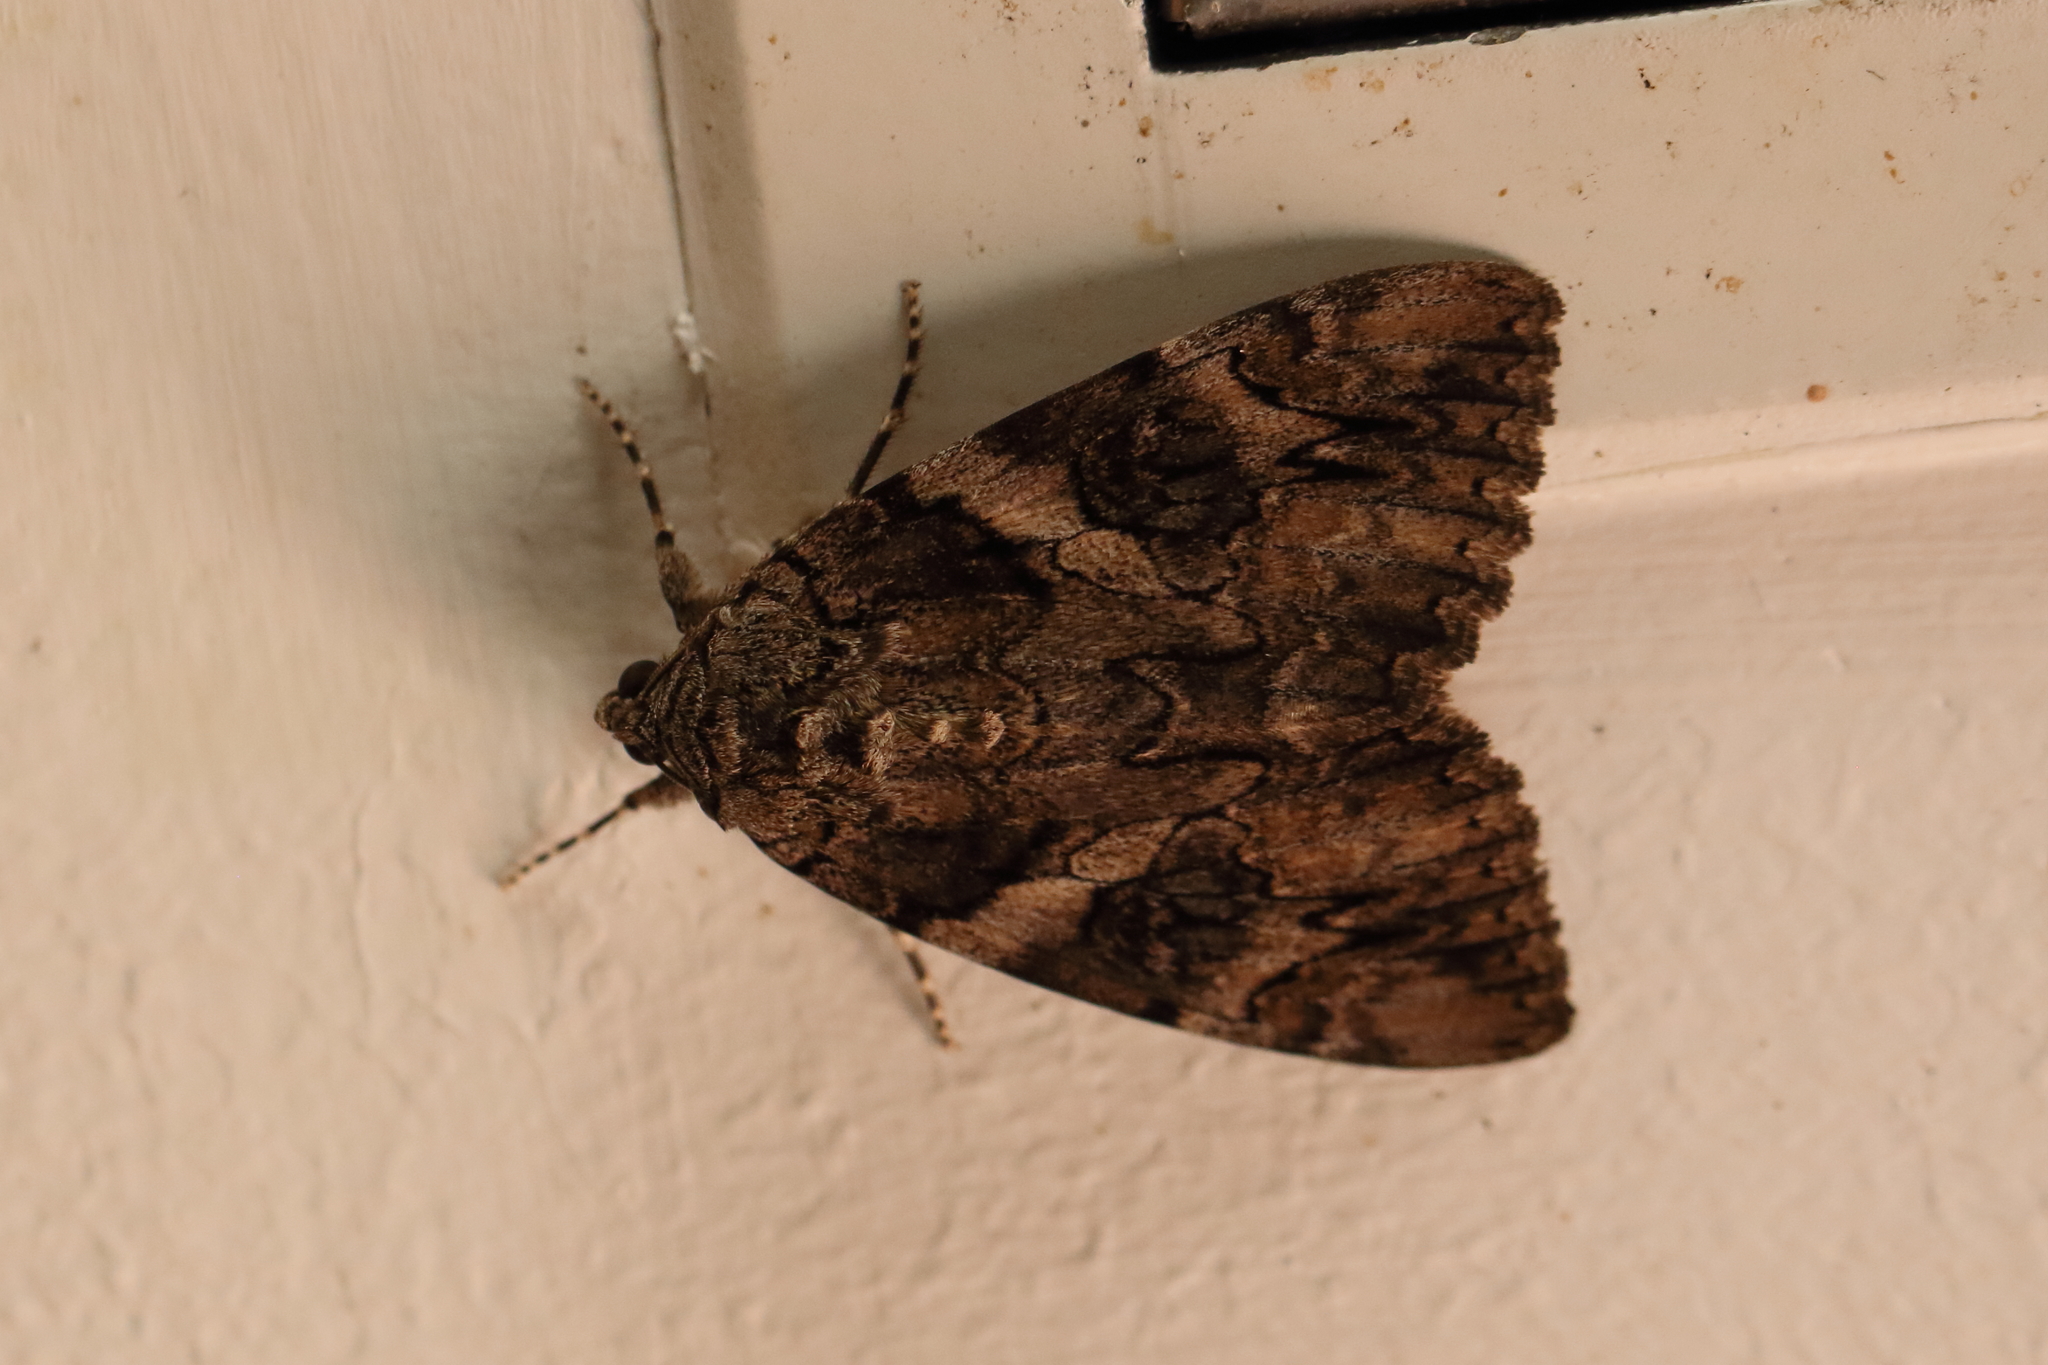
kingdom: Animalia
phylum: Arthropoda
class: Insecta
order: Lepidoptera
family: Erebidae
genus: Catocala
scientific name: Catocala piatrix
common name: The penitent underwing
